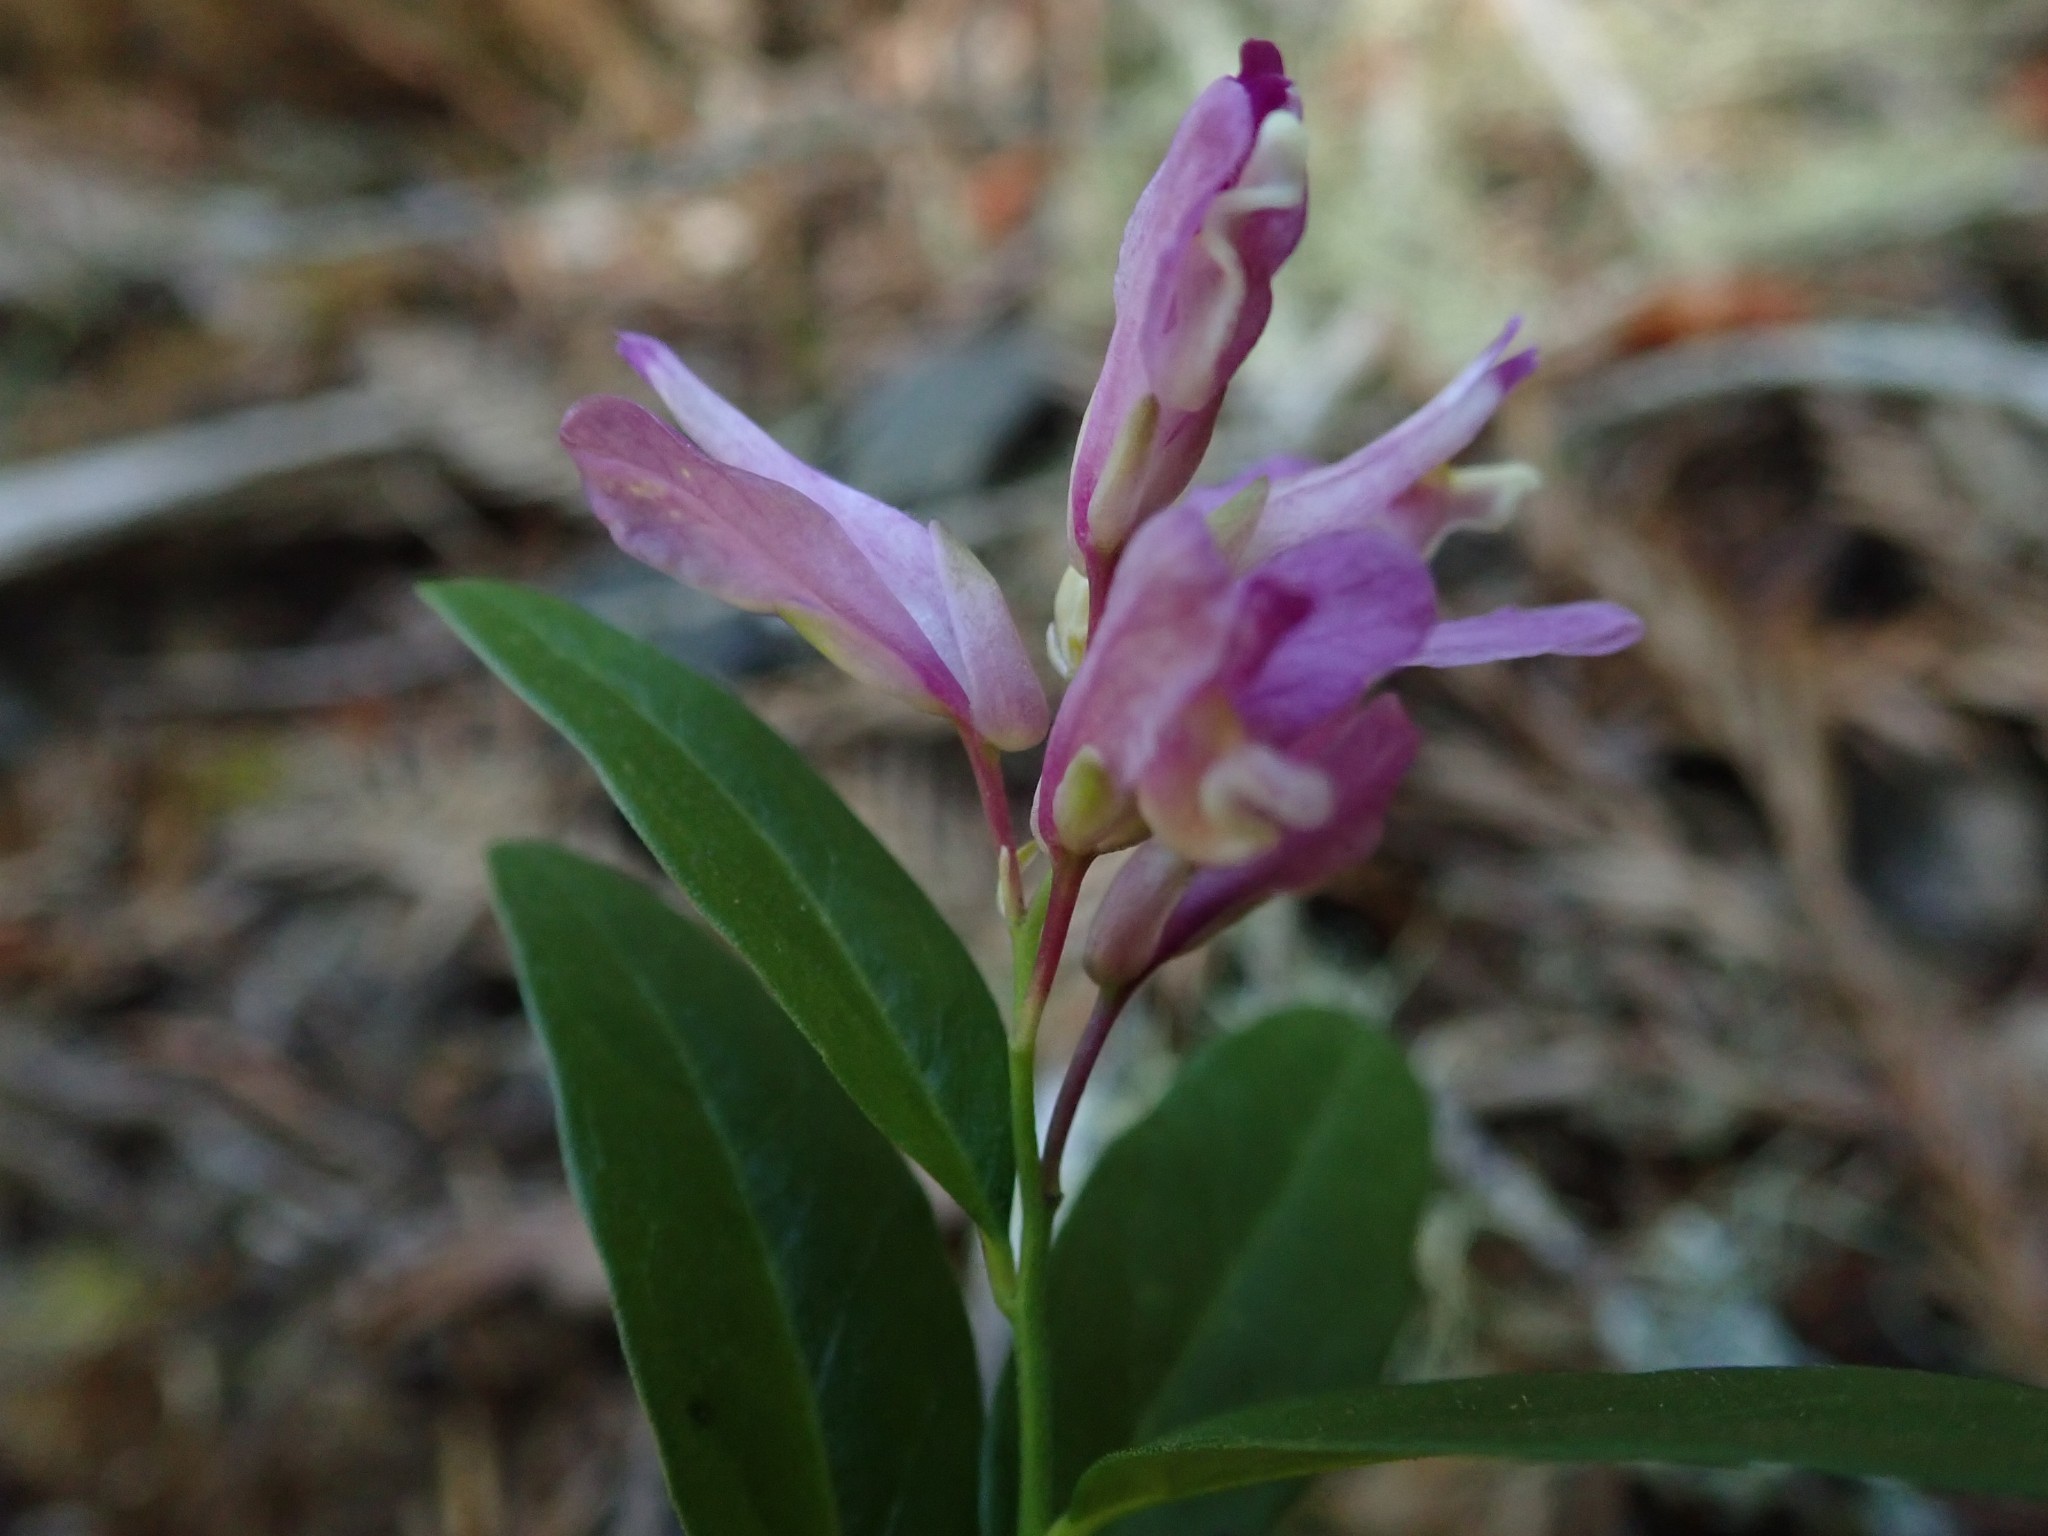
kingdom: Plantae
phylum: Tracheophyta
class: Magnoliopsida
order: Fabales
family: Polygalaceae
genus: Rhinotropis
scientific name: Rhinotropis californica
